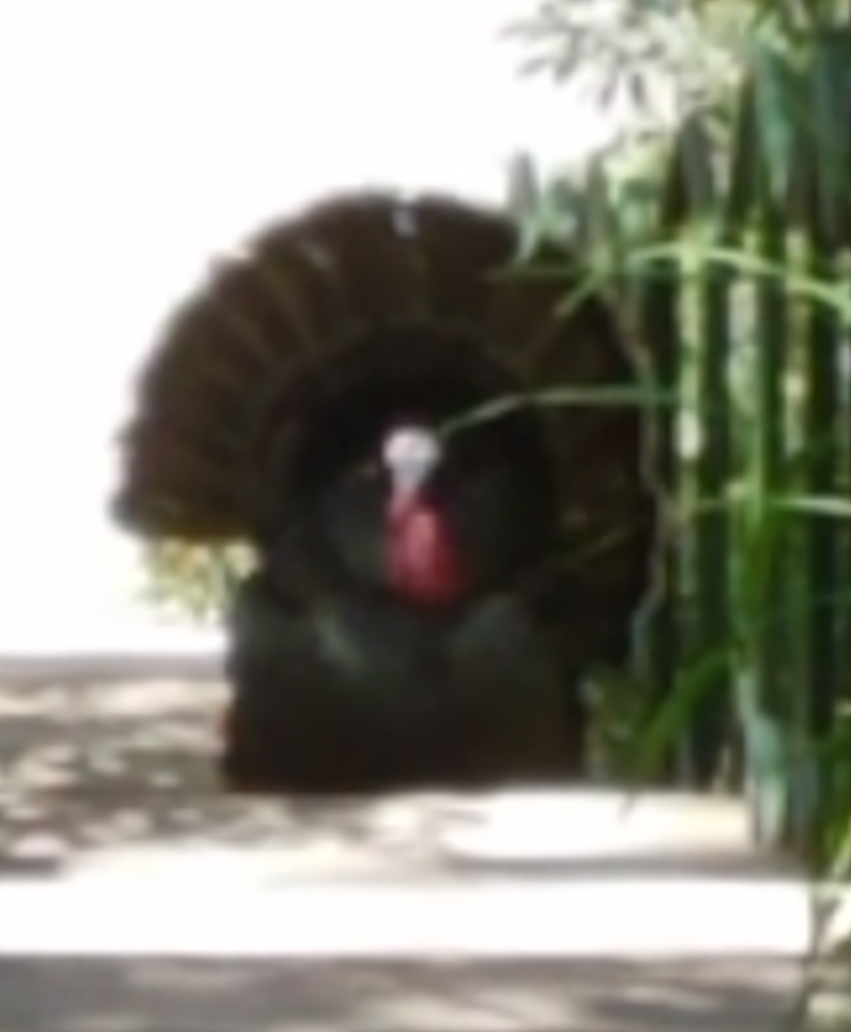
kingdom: Animalia
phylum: Chordata
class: Aves
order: Galliformes
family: Phasianidae
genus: Meleagris
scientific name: Meleagris gallopavo
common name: Wild turkey
